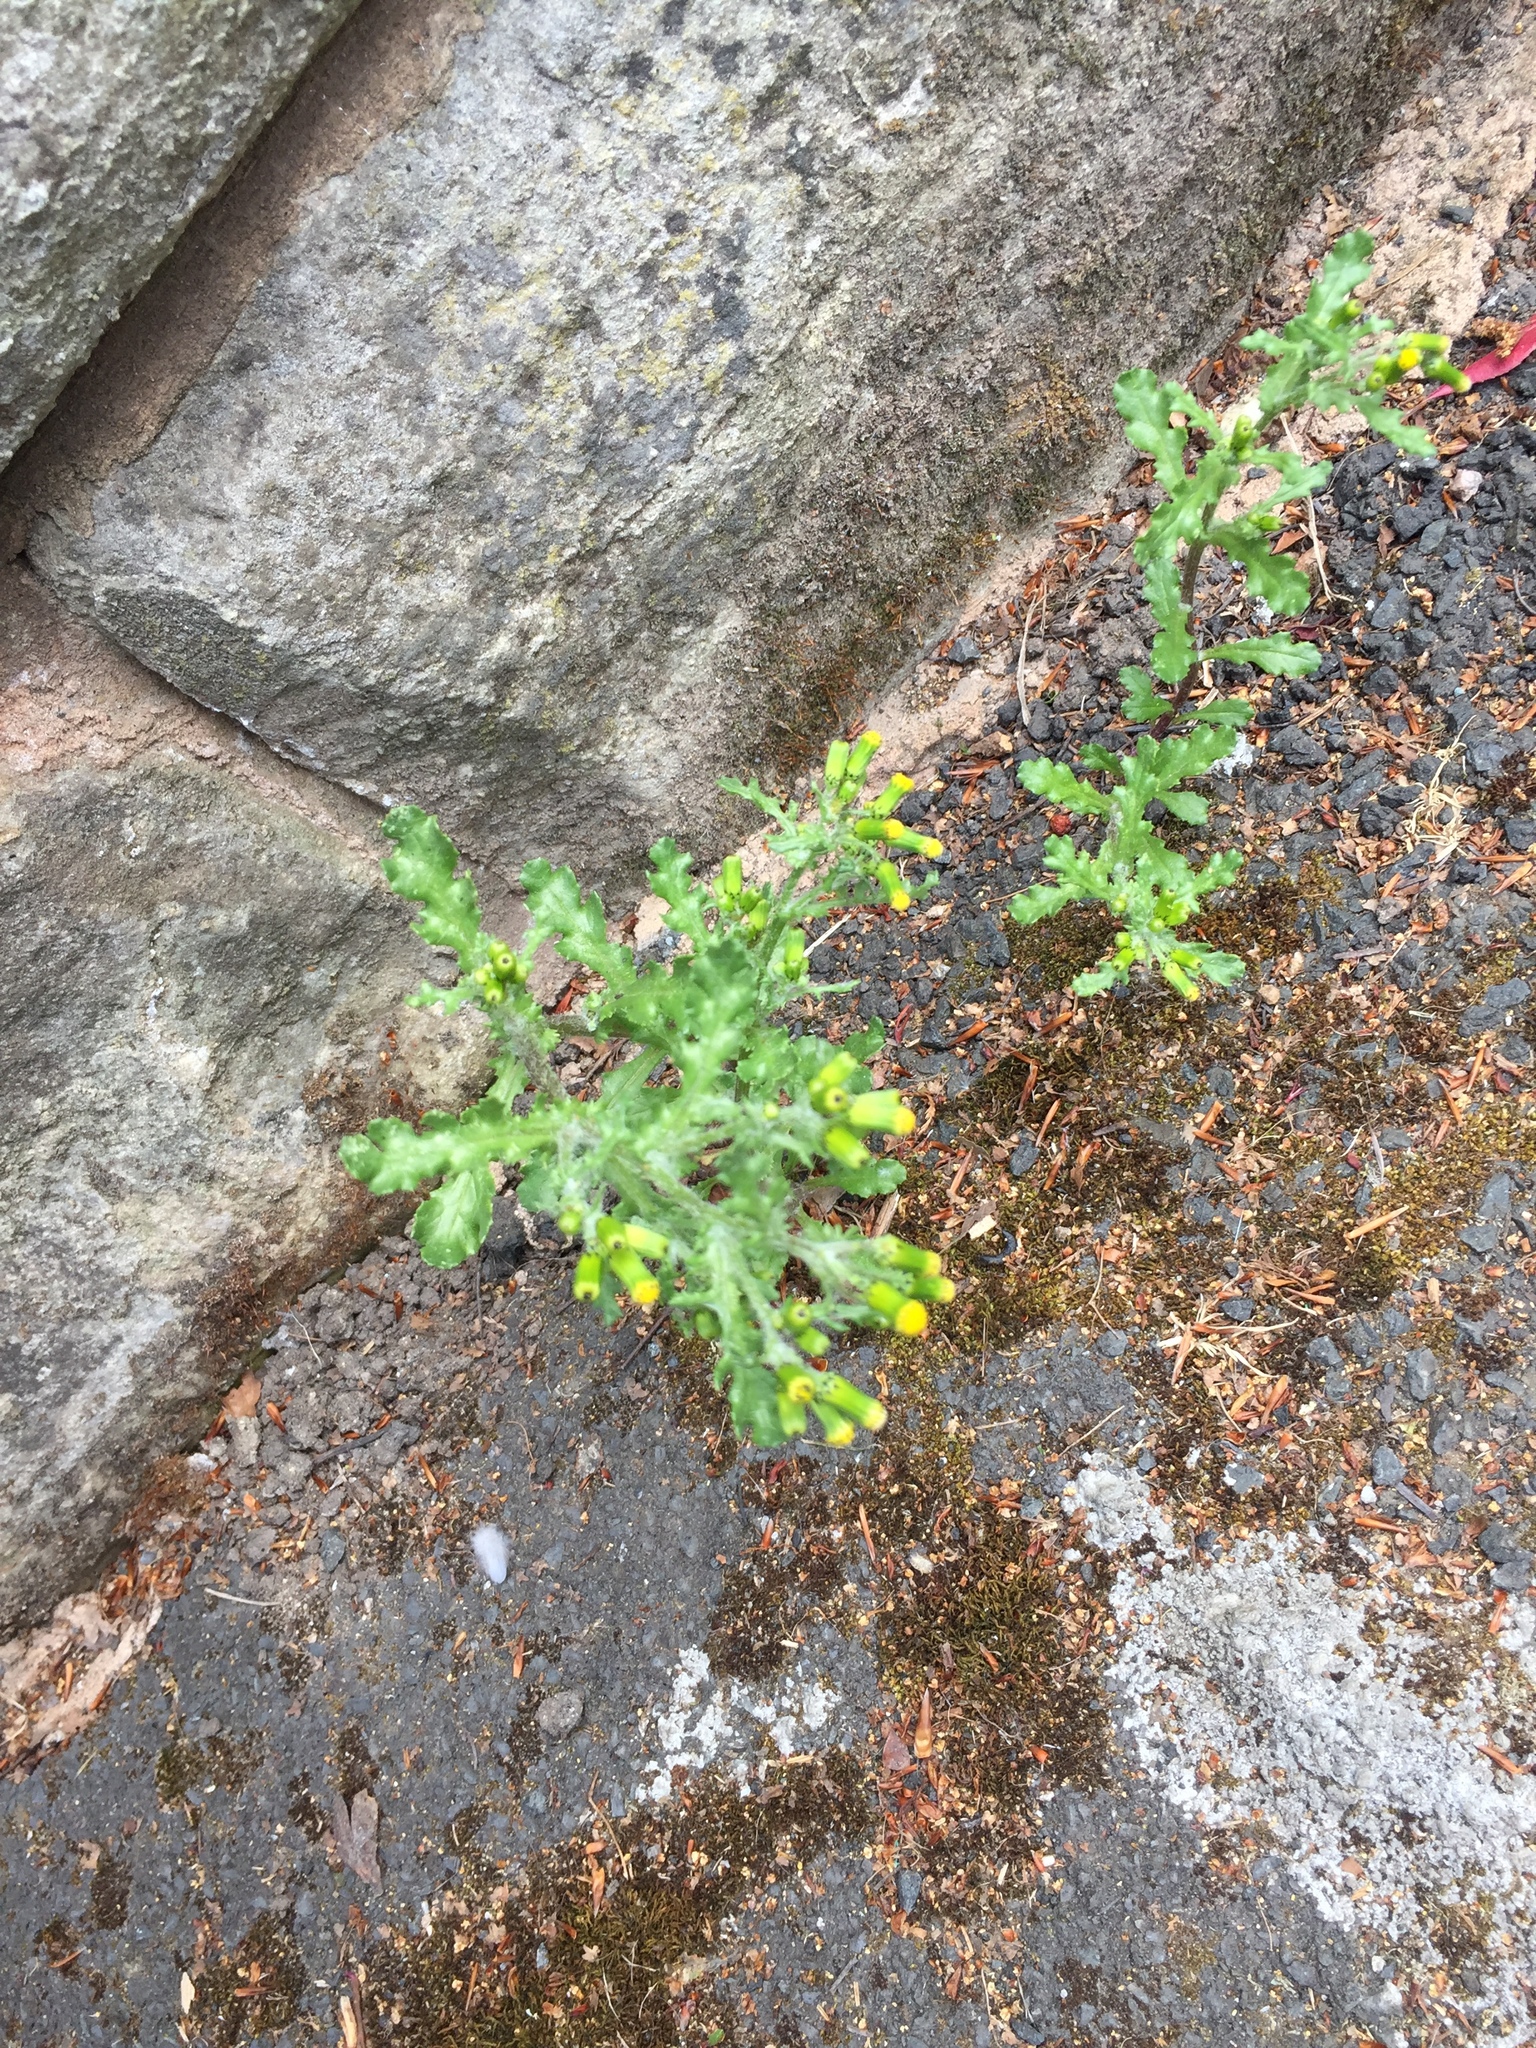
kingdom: Plantae
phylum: Tracheophyta
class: Magnoliopsida
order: Asterales
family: Asteraceae
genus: Senecio
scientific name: Senecio vulgaris
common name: Old-man-in-the-spring
